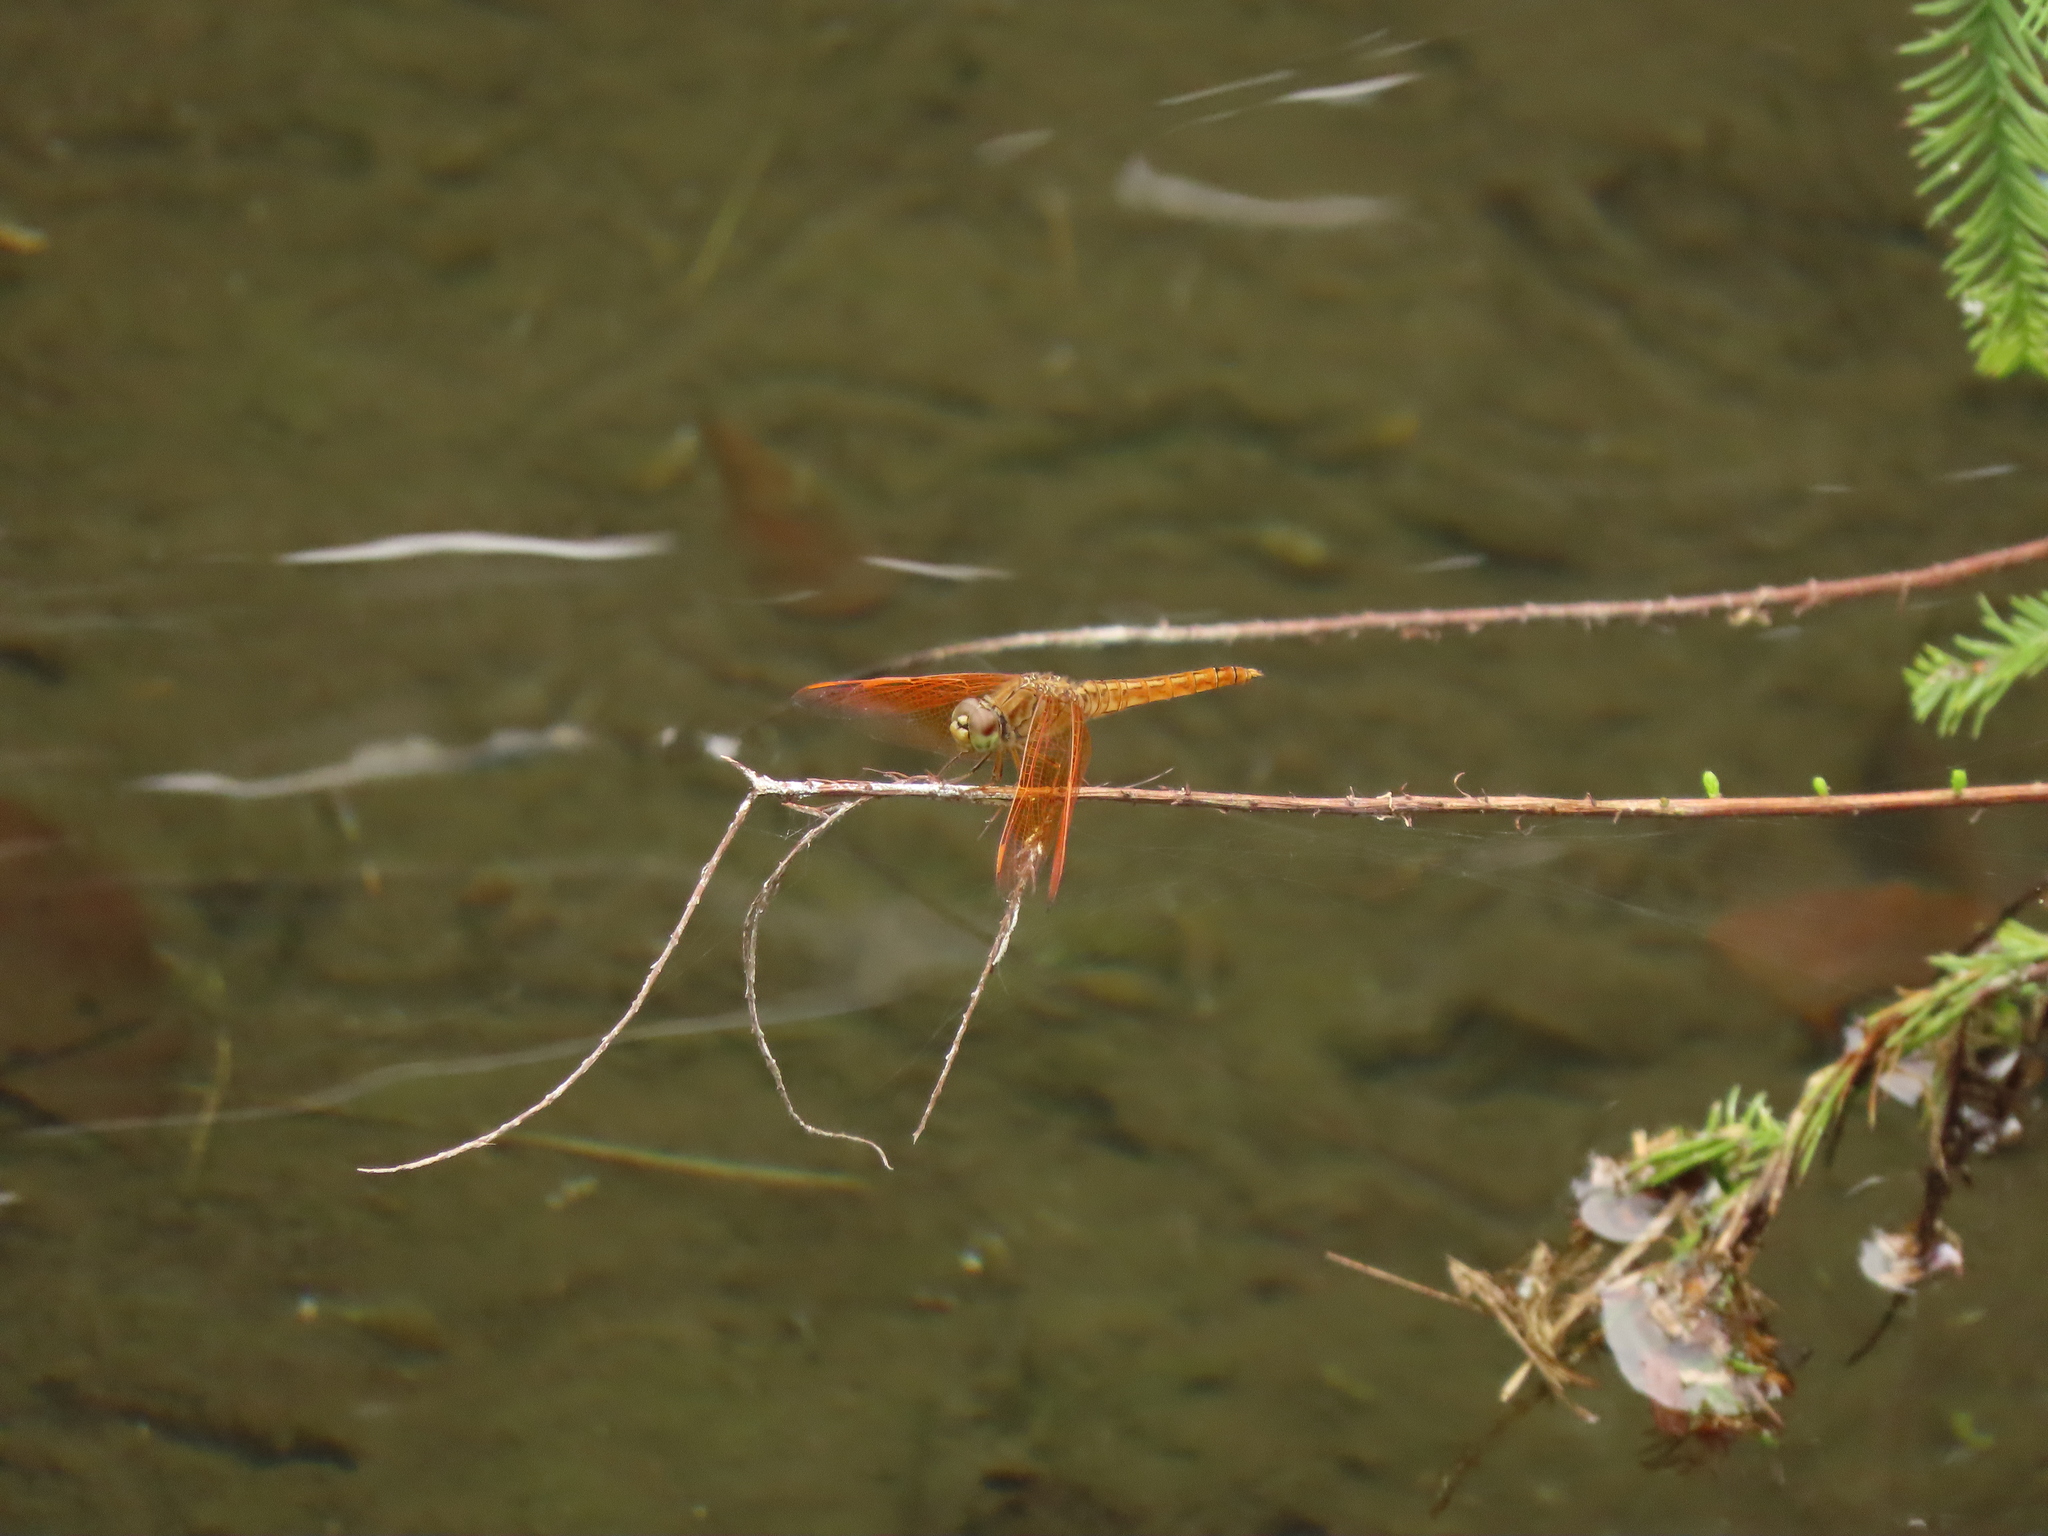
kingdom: Animalia
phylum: Arthropoda
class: Insecta
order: Odonata
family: Libellulidae
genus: Brachythemis
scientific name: Brachythemis contaminata
